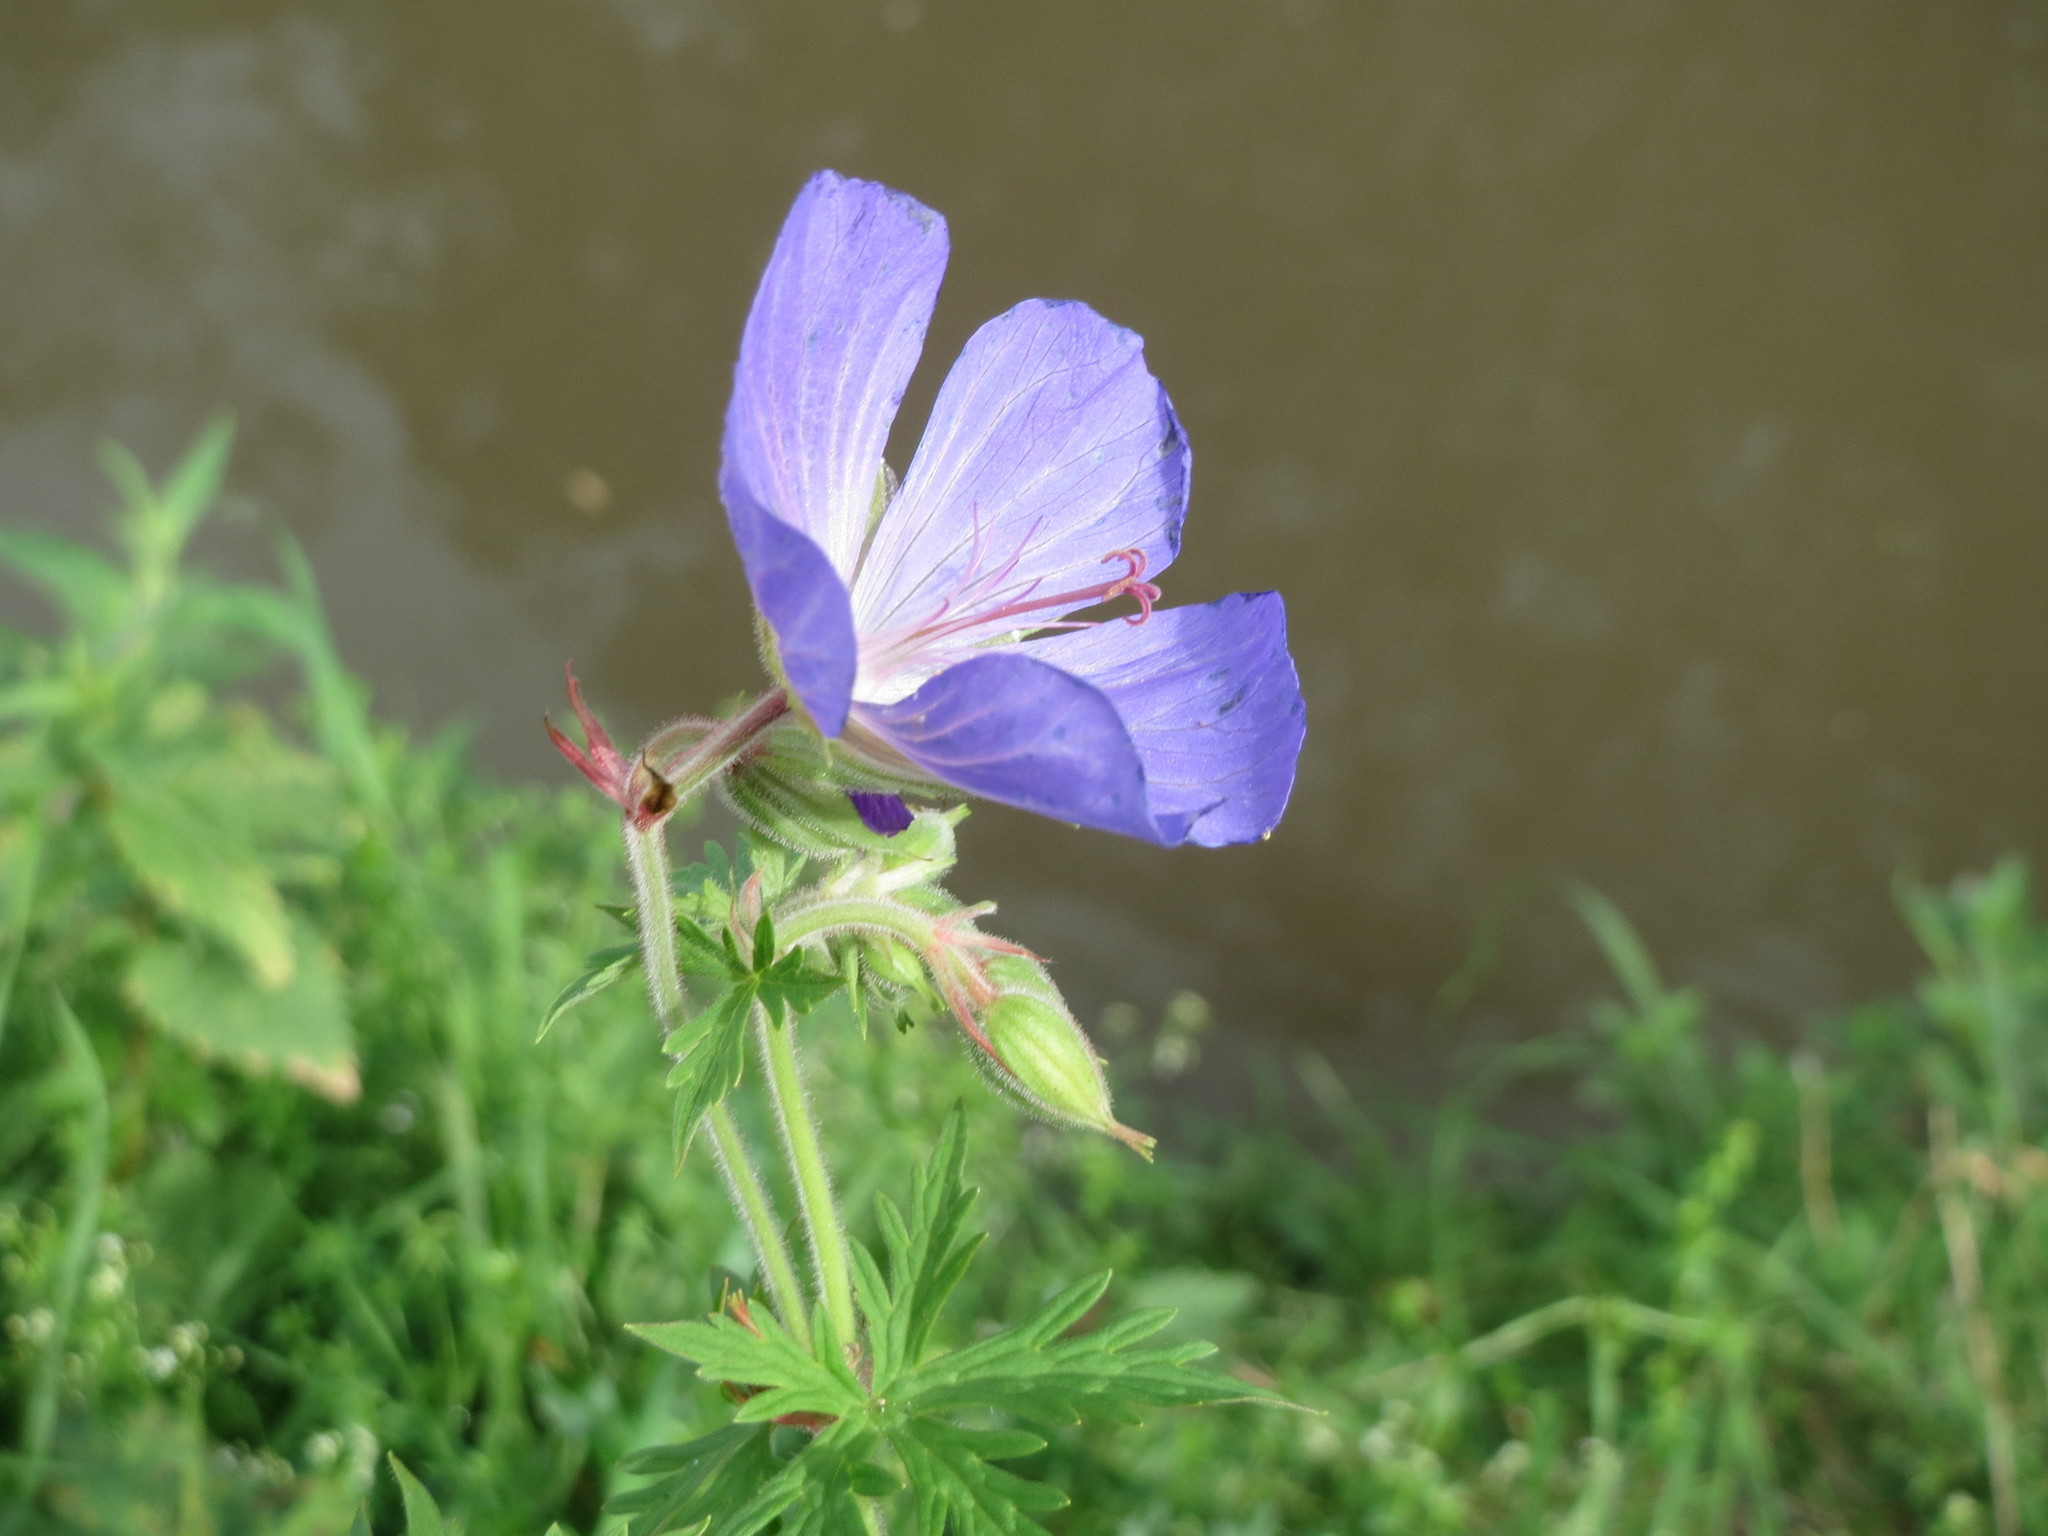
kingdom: Plantae
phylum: Tracheophyta
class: Magnoliopsida
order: Geraniales
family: Geraniaceae
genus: Geranium
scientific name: Geranium pratense
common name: Meadow crane's-bill
